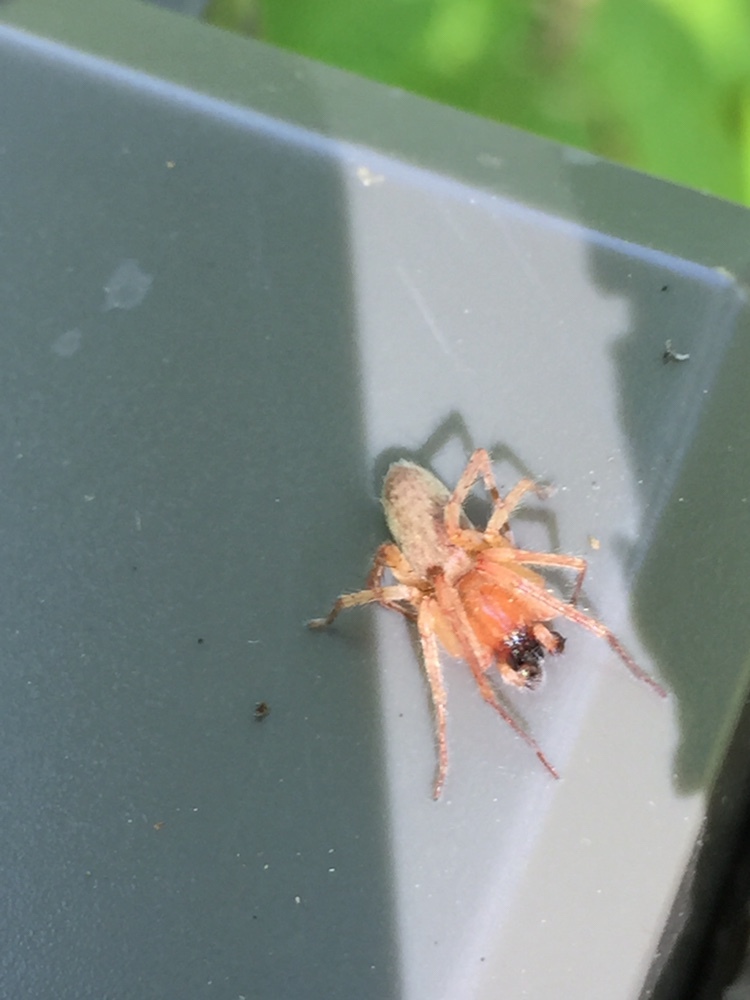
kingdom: Animalia
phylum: Arthropoda
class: Arachnida
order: Araneae
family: Anyphaenidae
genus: Hibana
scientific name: Hibana gracilis
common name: Garden ghost spider
